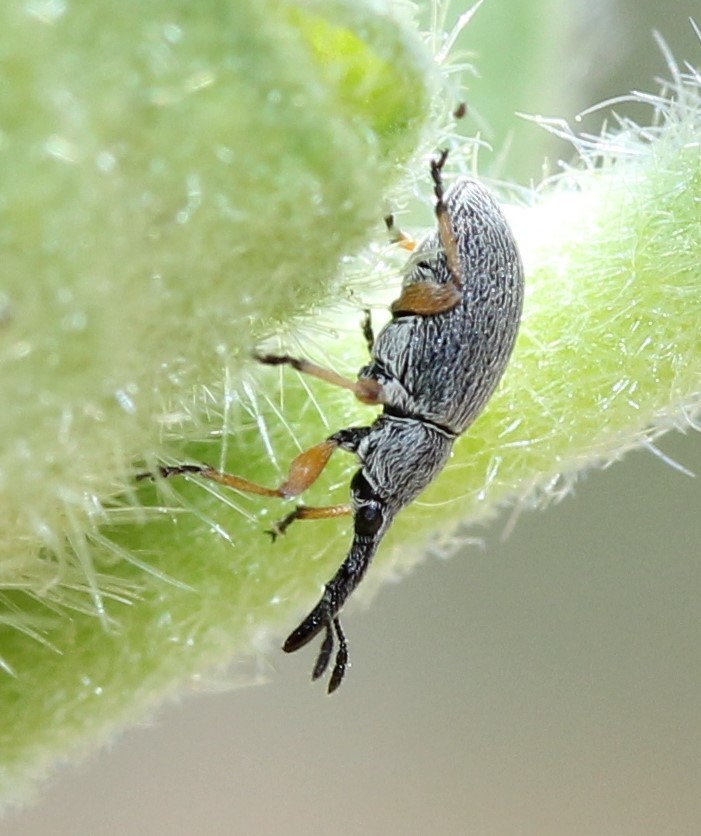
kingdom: Animalia
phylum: Arthropoda
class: Insecta
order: Coleoptera
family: Brentidae
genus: Rhopalapion
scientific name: Rhopalapion longirostre
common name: Hollyhock weevil
